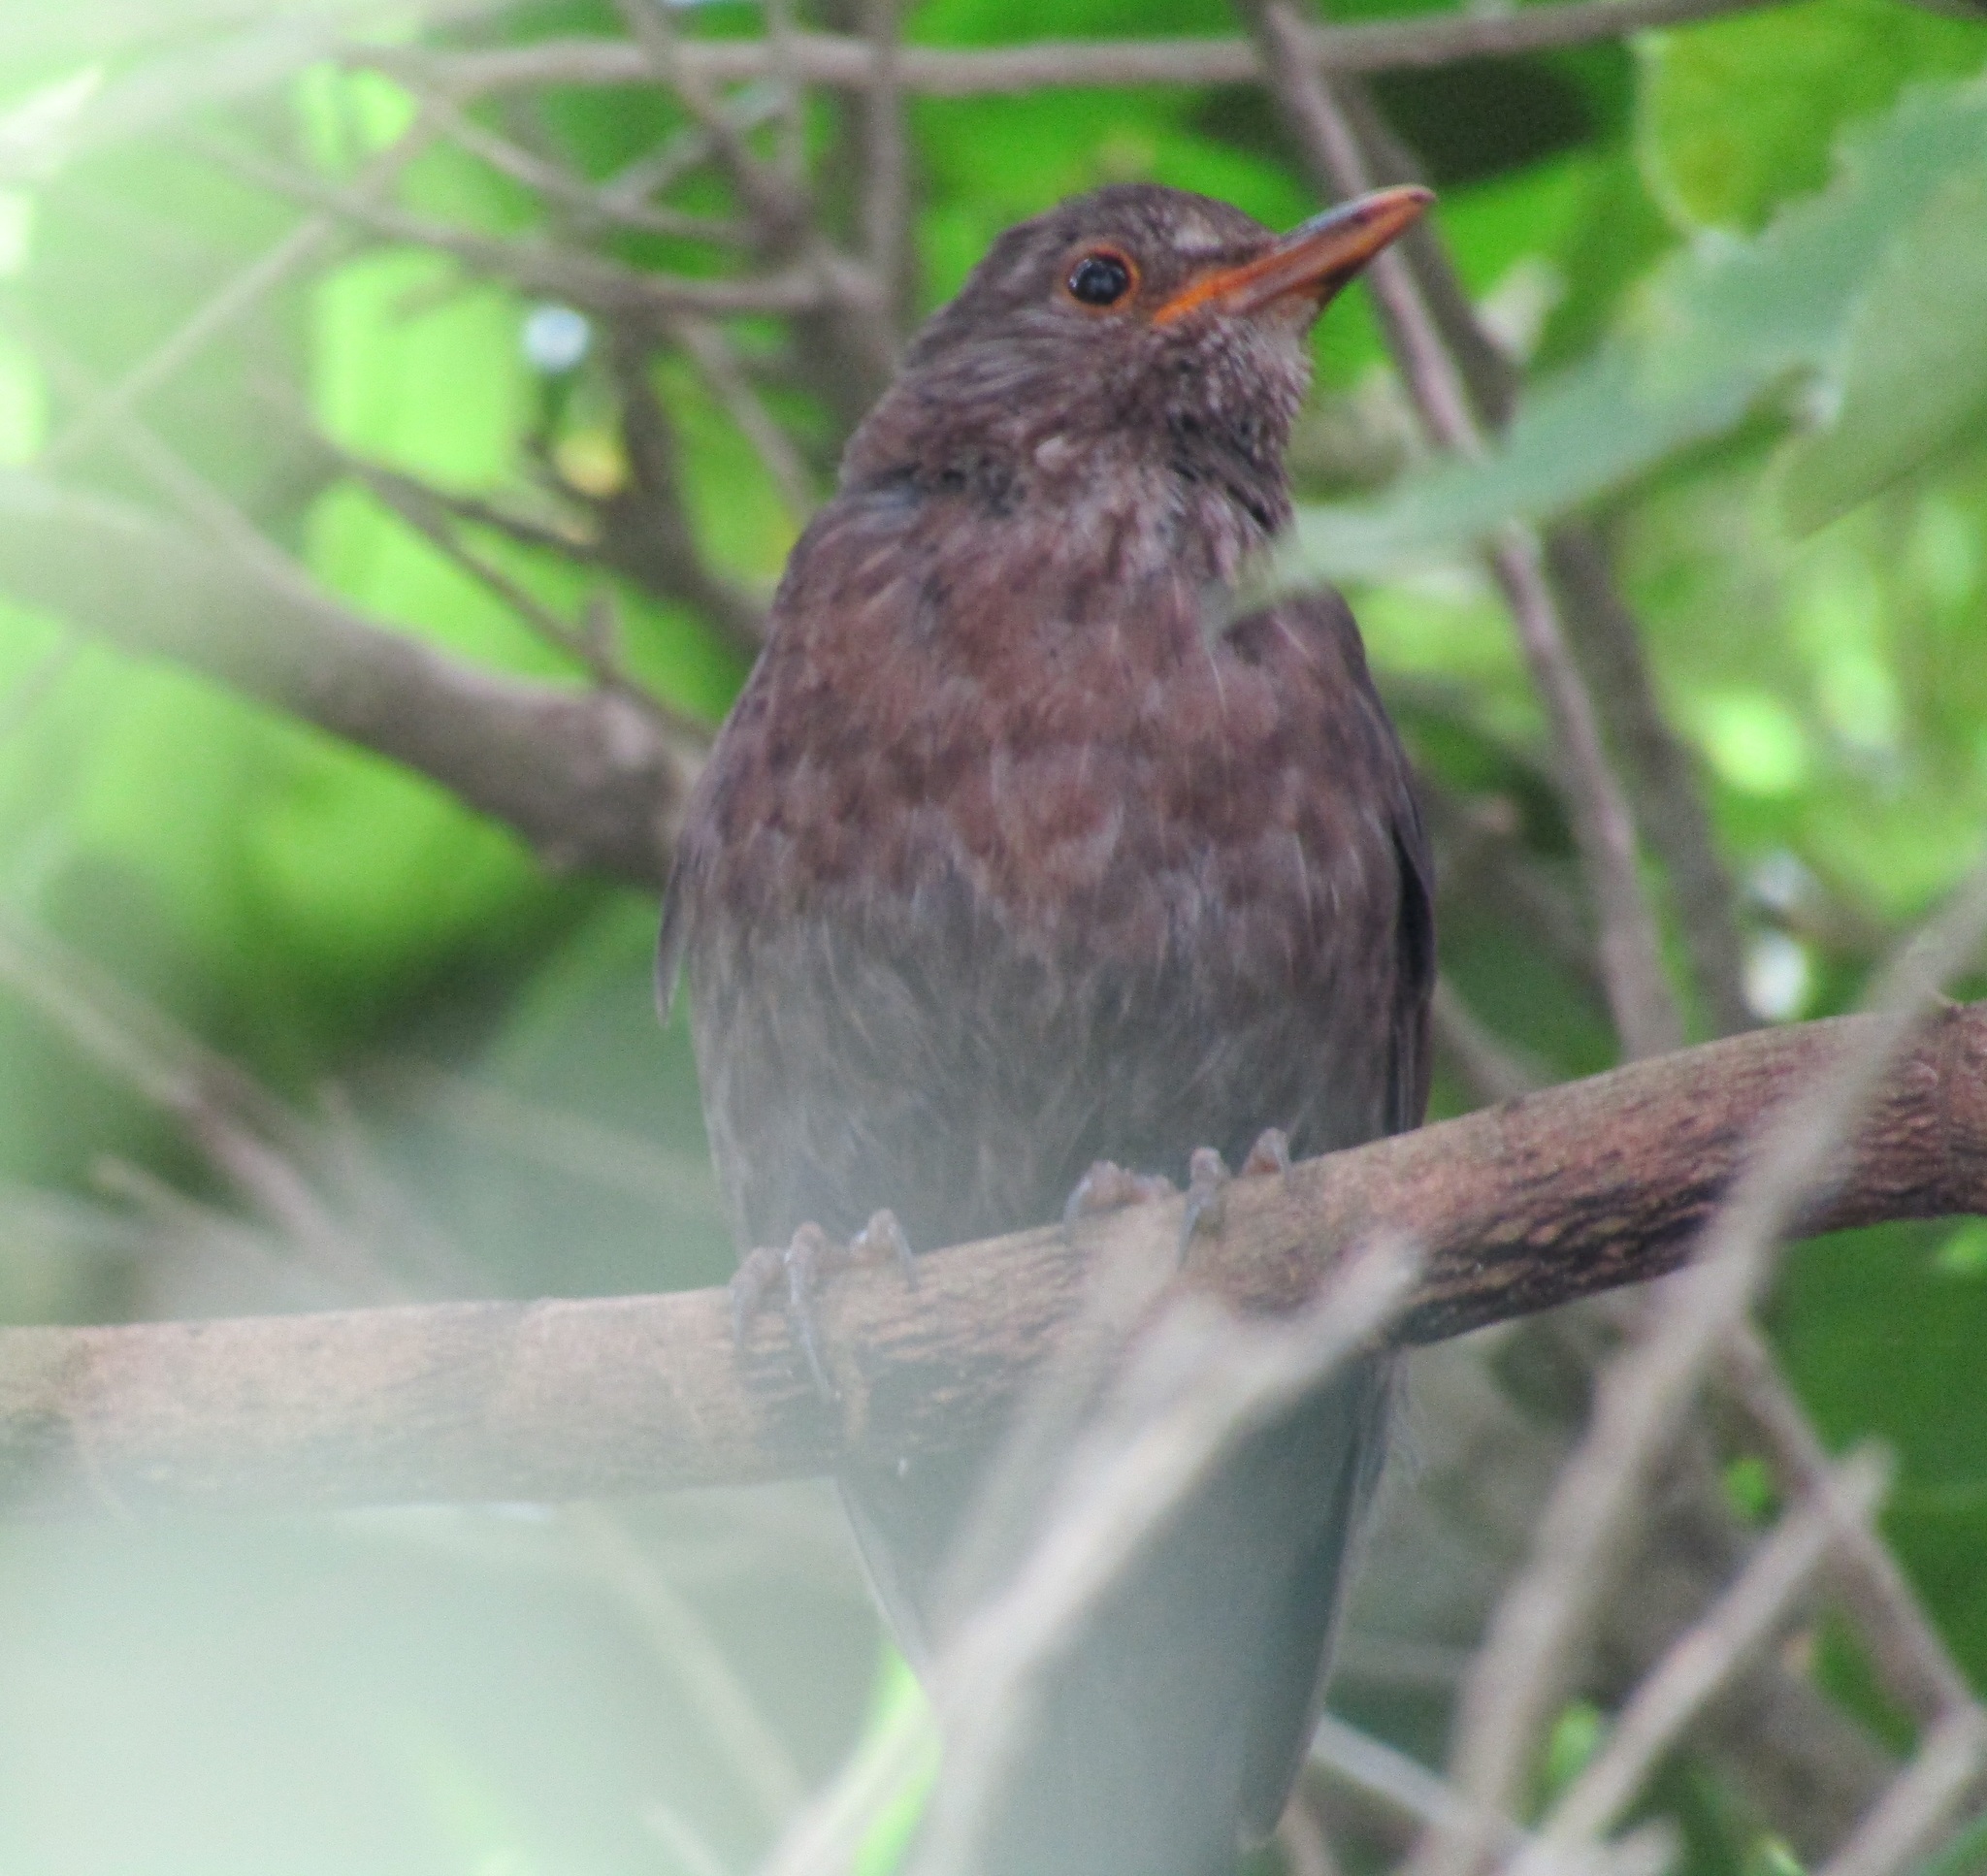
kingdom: Animalia
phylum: Chordata
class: Aves
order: Passeriformes
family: Turdidae
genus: Turdus
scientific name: Turdus merula
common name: Common blackbird
